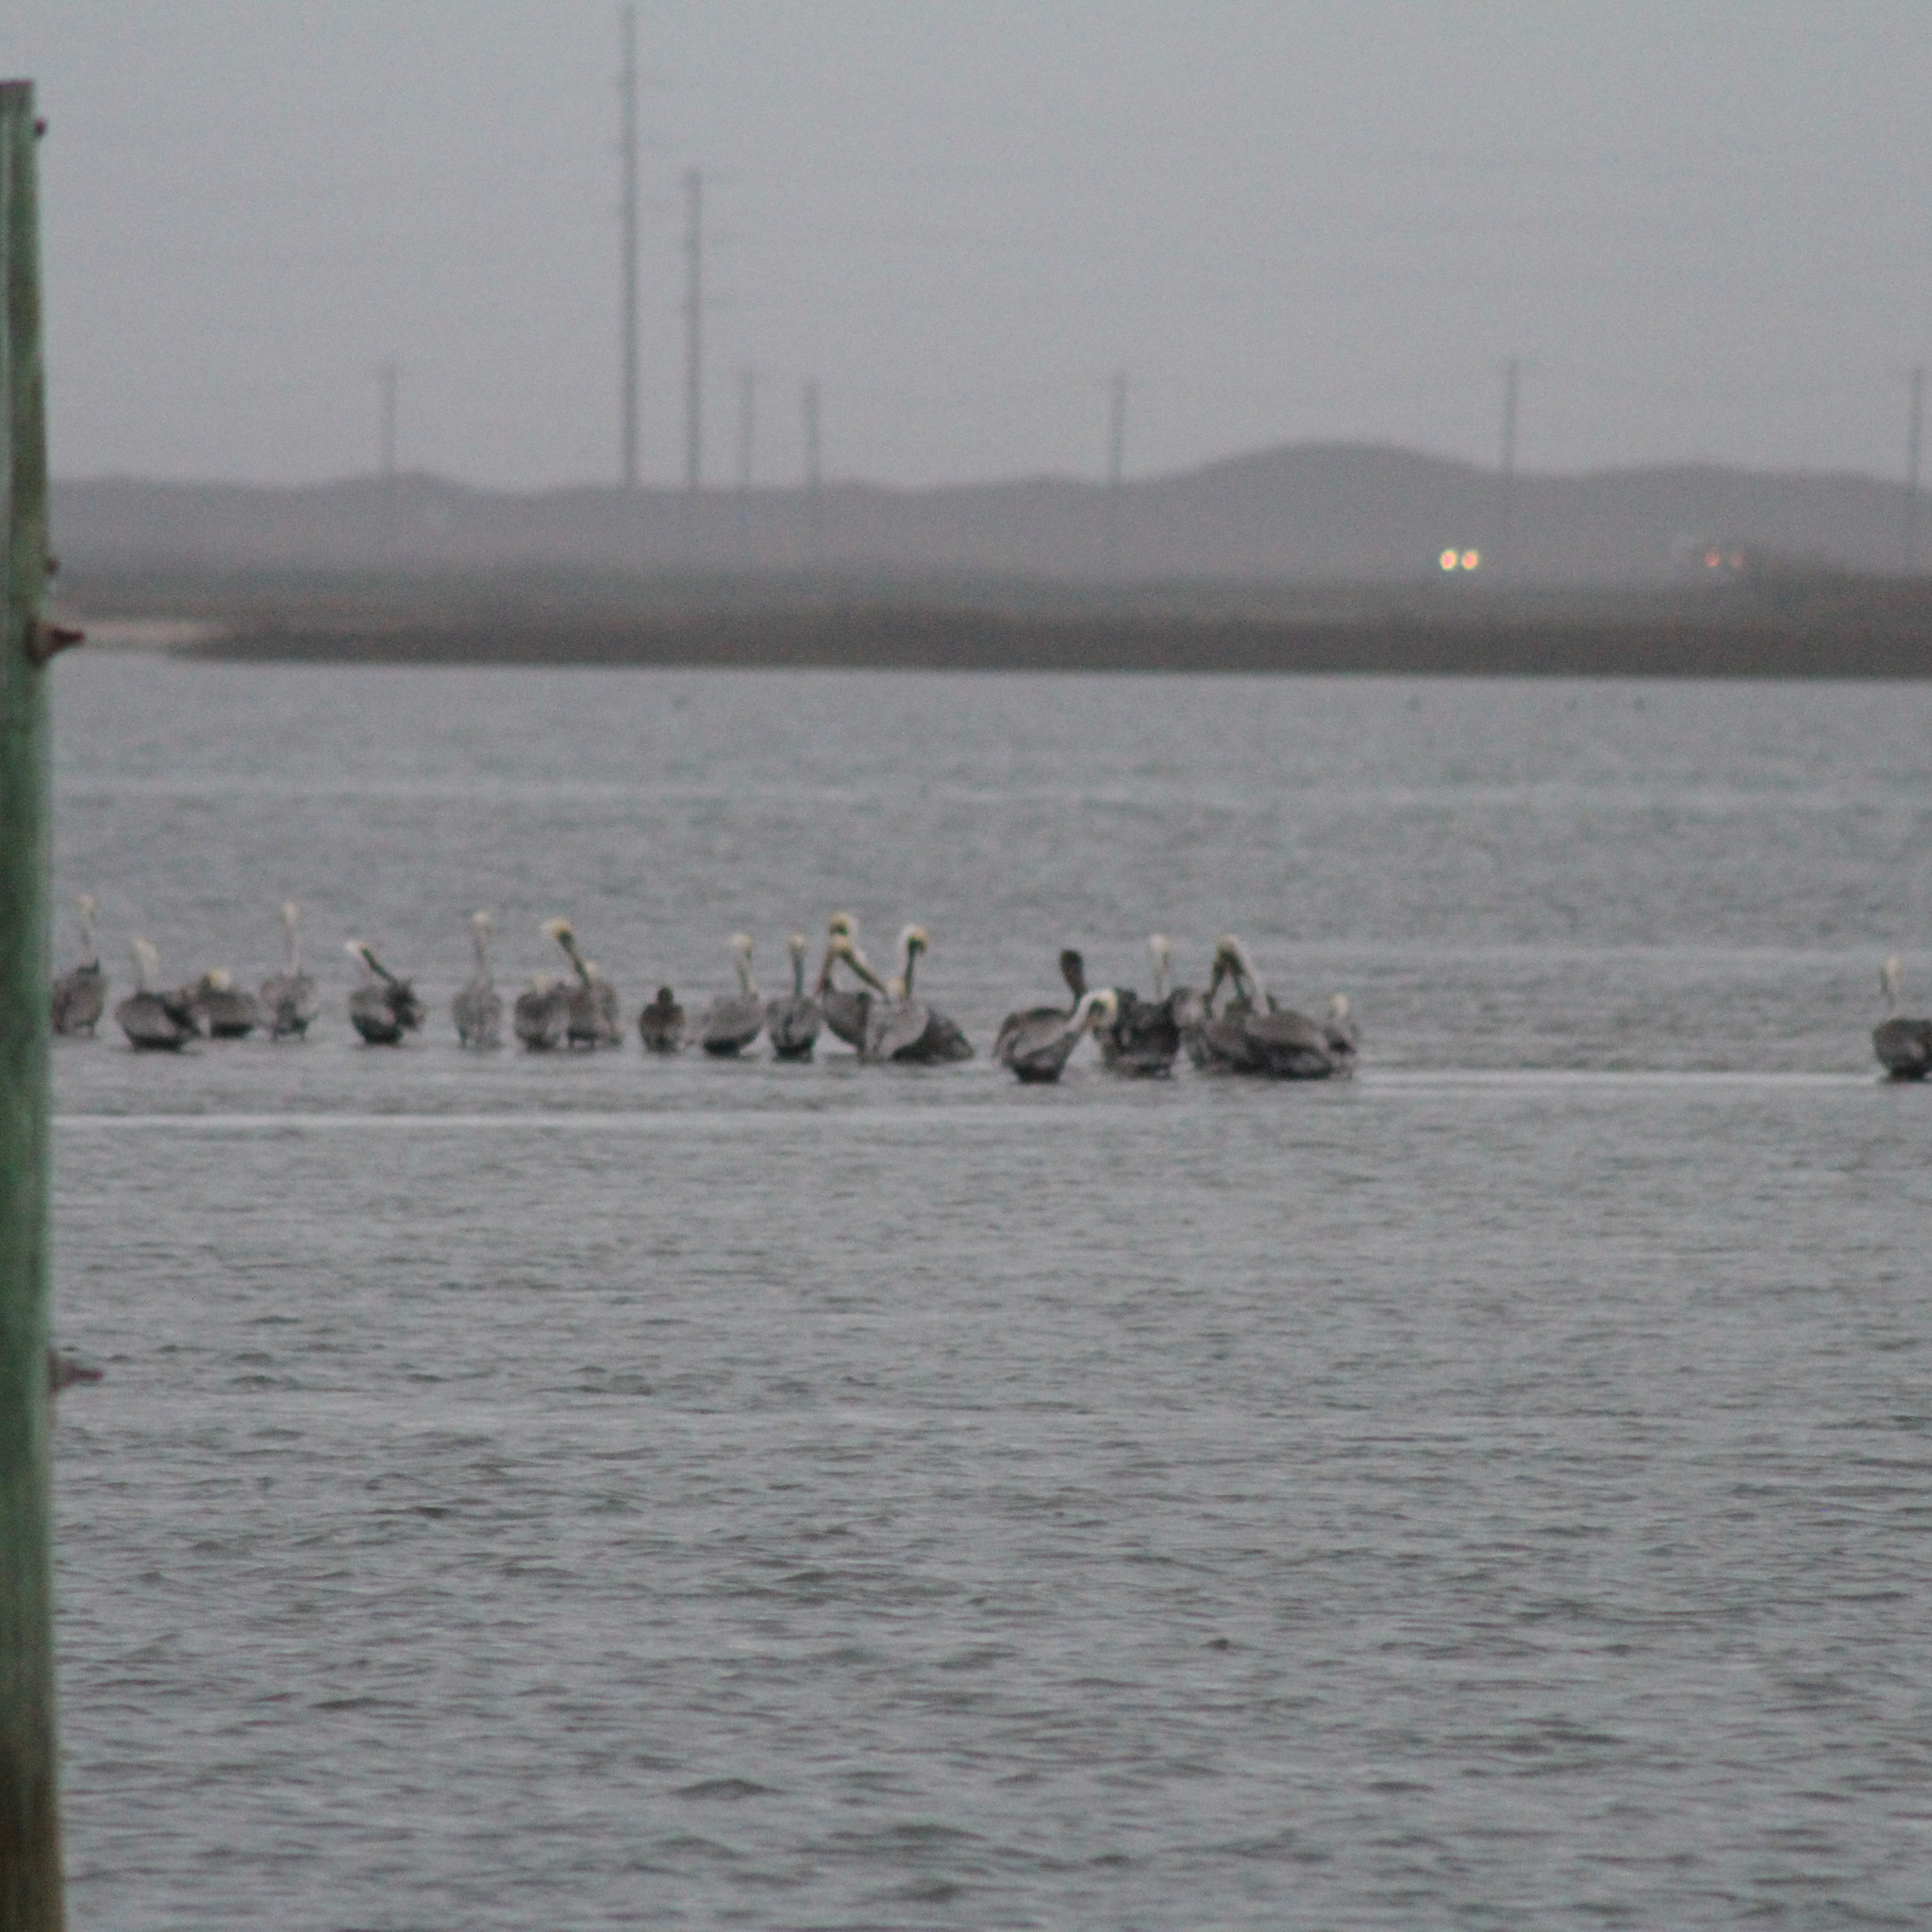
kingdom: Animalia
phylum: Chordata
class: Aves
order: Pelecaniformes
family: Pelecanidae
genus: Pelecanus
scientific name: Pelecanus occidentalis
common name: Brown pelican
